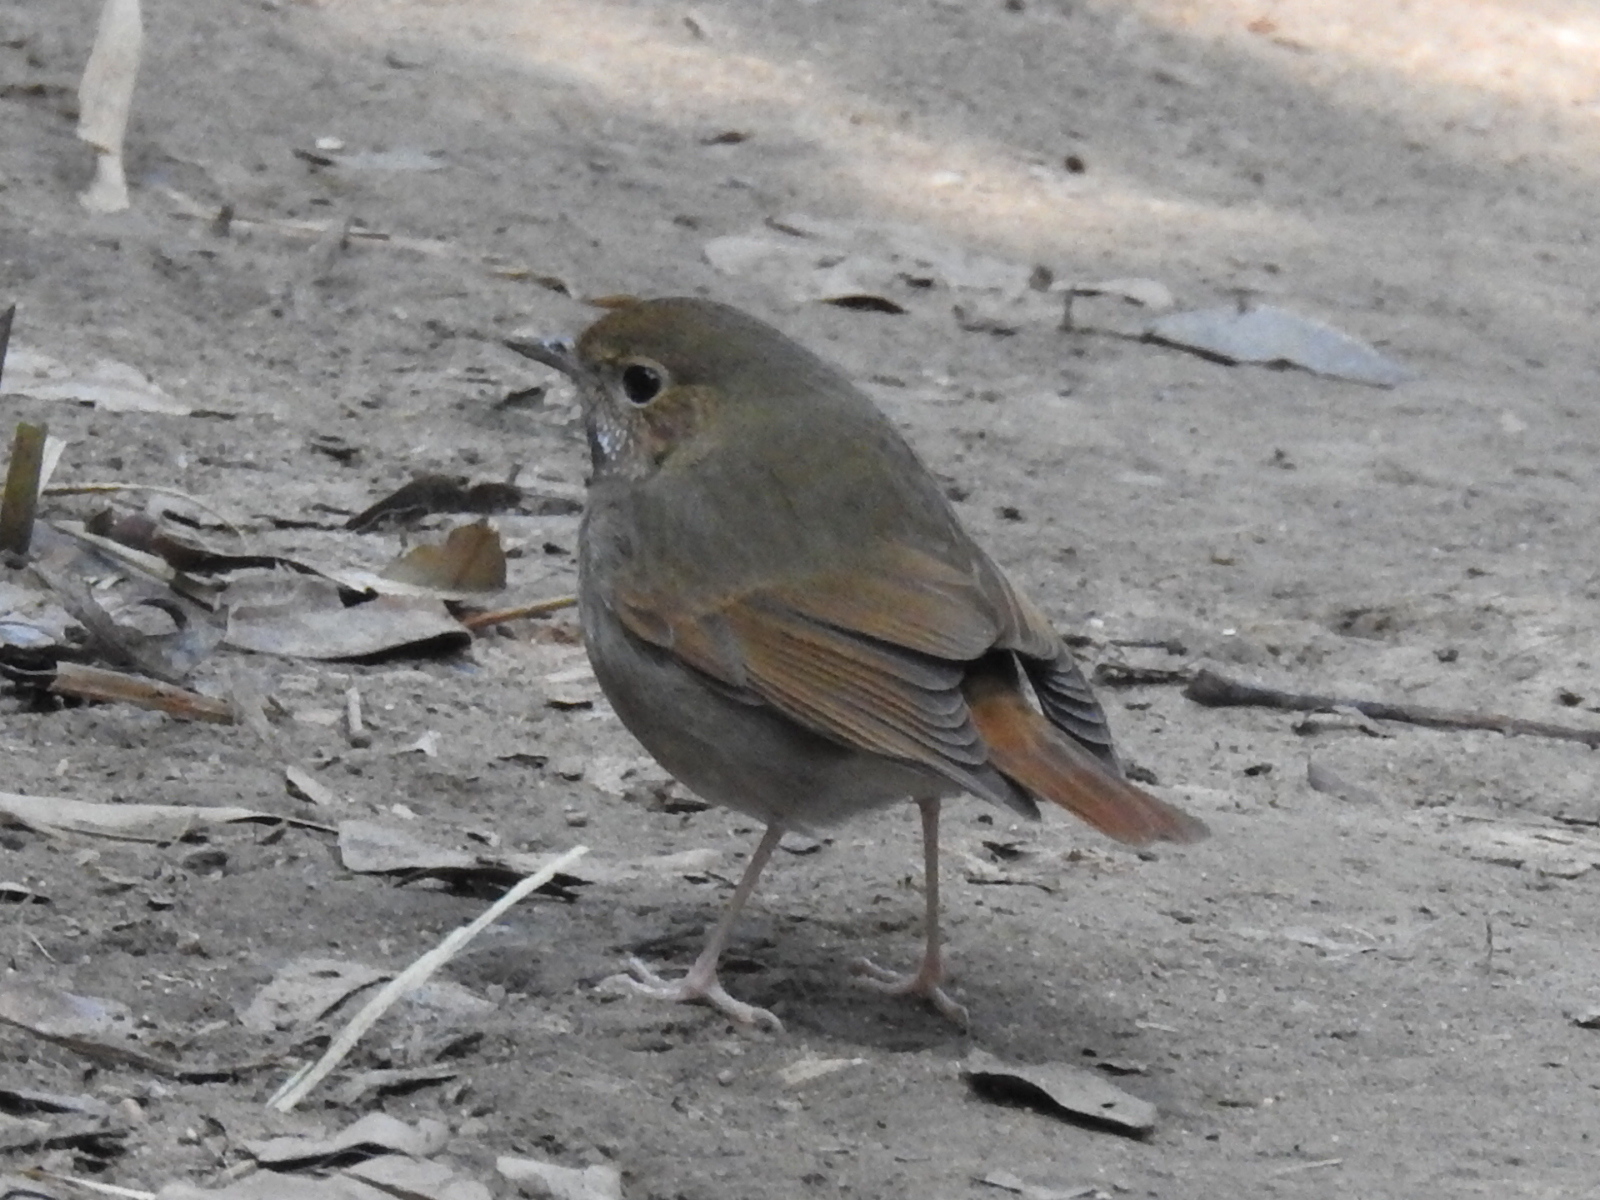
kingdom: Animalia
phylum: Chordata
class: Aves
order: Passeriformes
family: Muscicapidae
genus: Larvivora
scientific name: Larvivora sibilans
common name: Rufous-tailed robin
